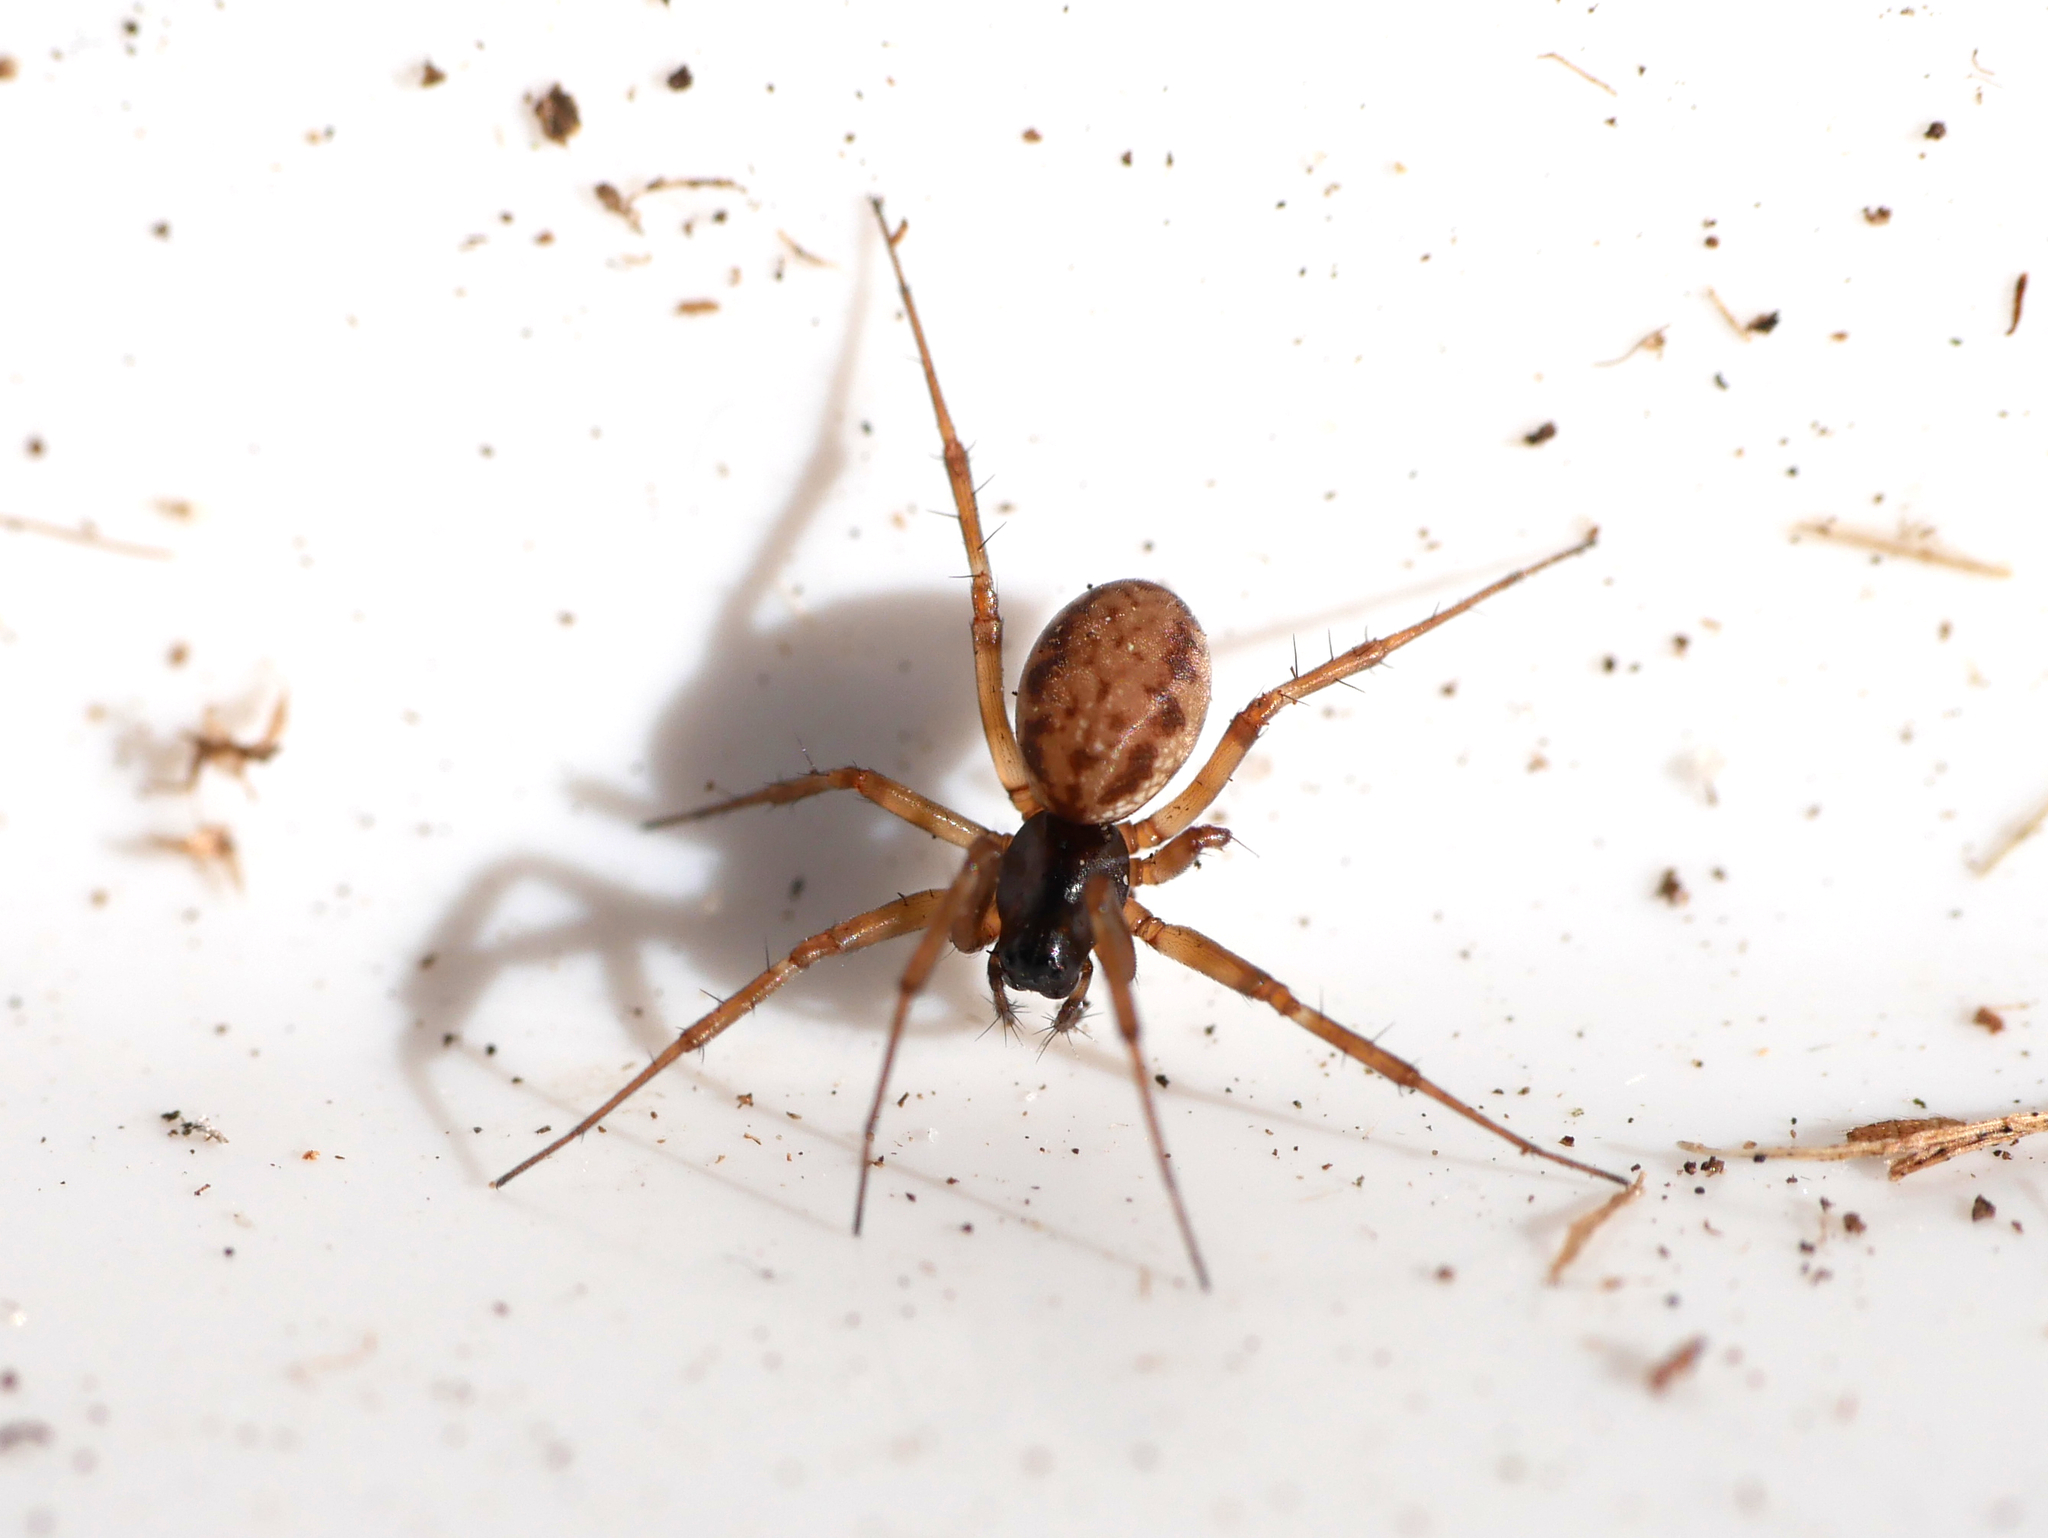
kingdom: Animalia
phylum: Arthropoda
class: Arachnida
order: Araneae
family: Linyphiidae
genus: Neriene
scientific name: Neriene clathrata
